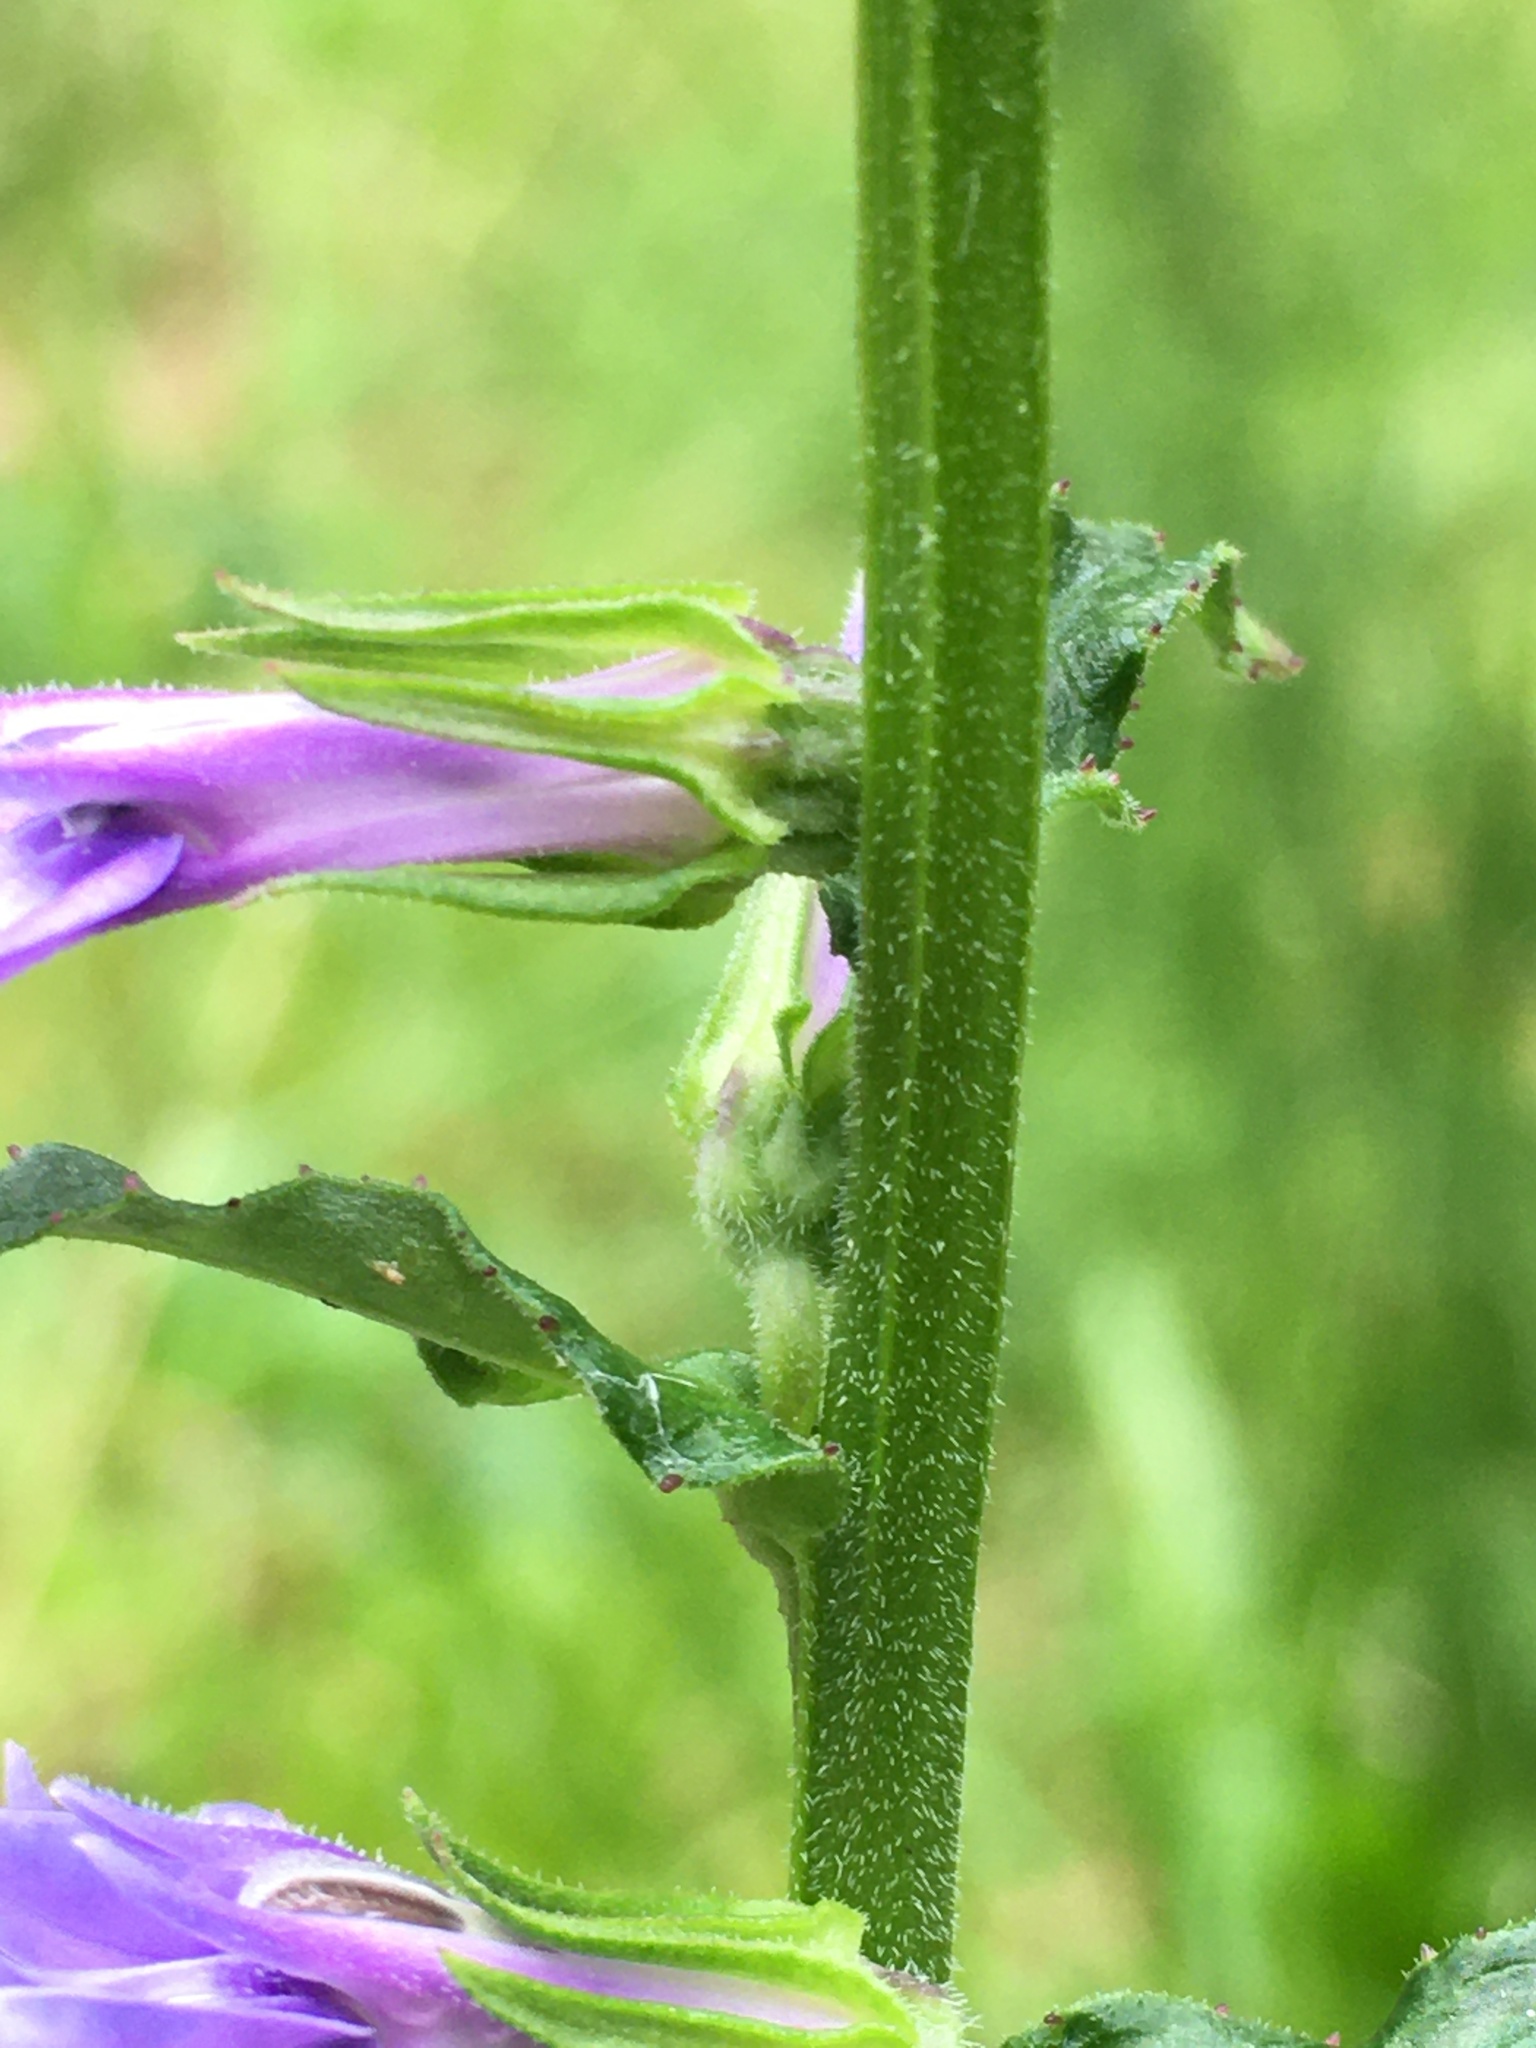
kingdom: Plantae
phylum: Tracheophyta
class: Magnoliopsida
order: Asterales
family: Campanulaceae
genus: Lobelia
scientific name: Lobelia puberula
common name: Purple dewdrop
